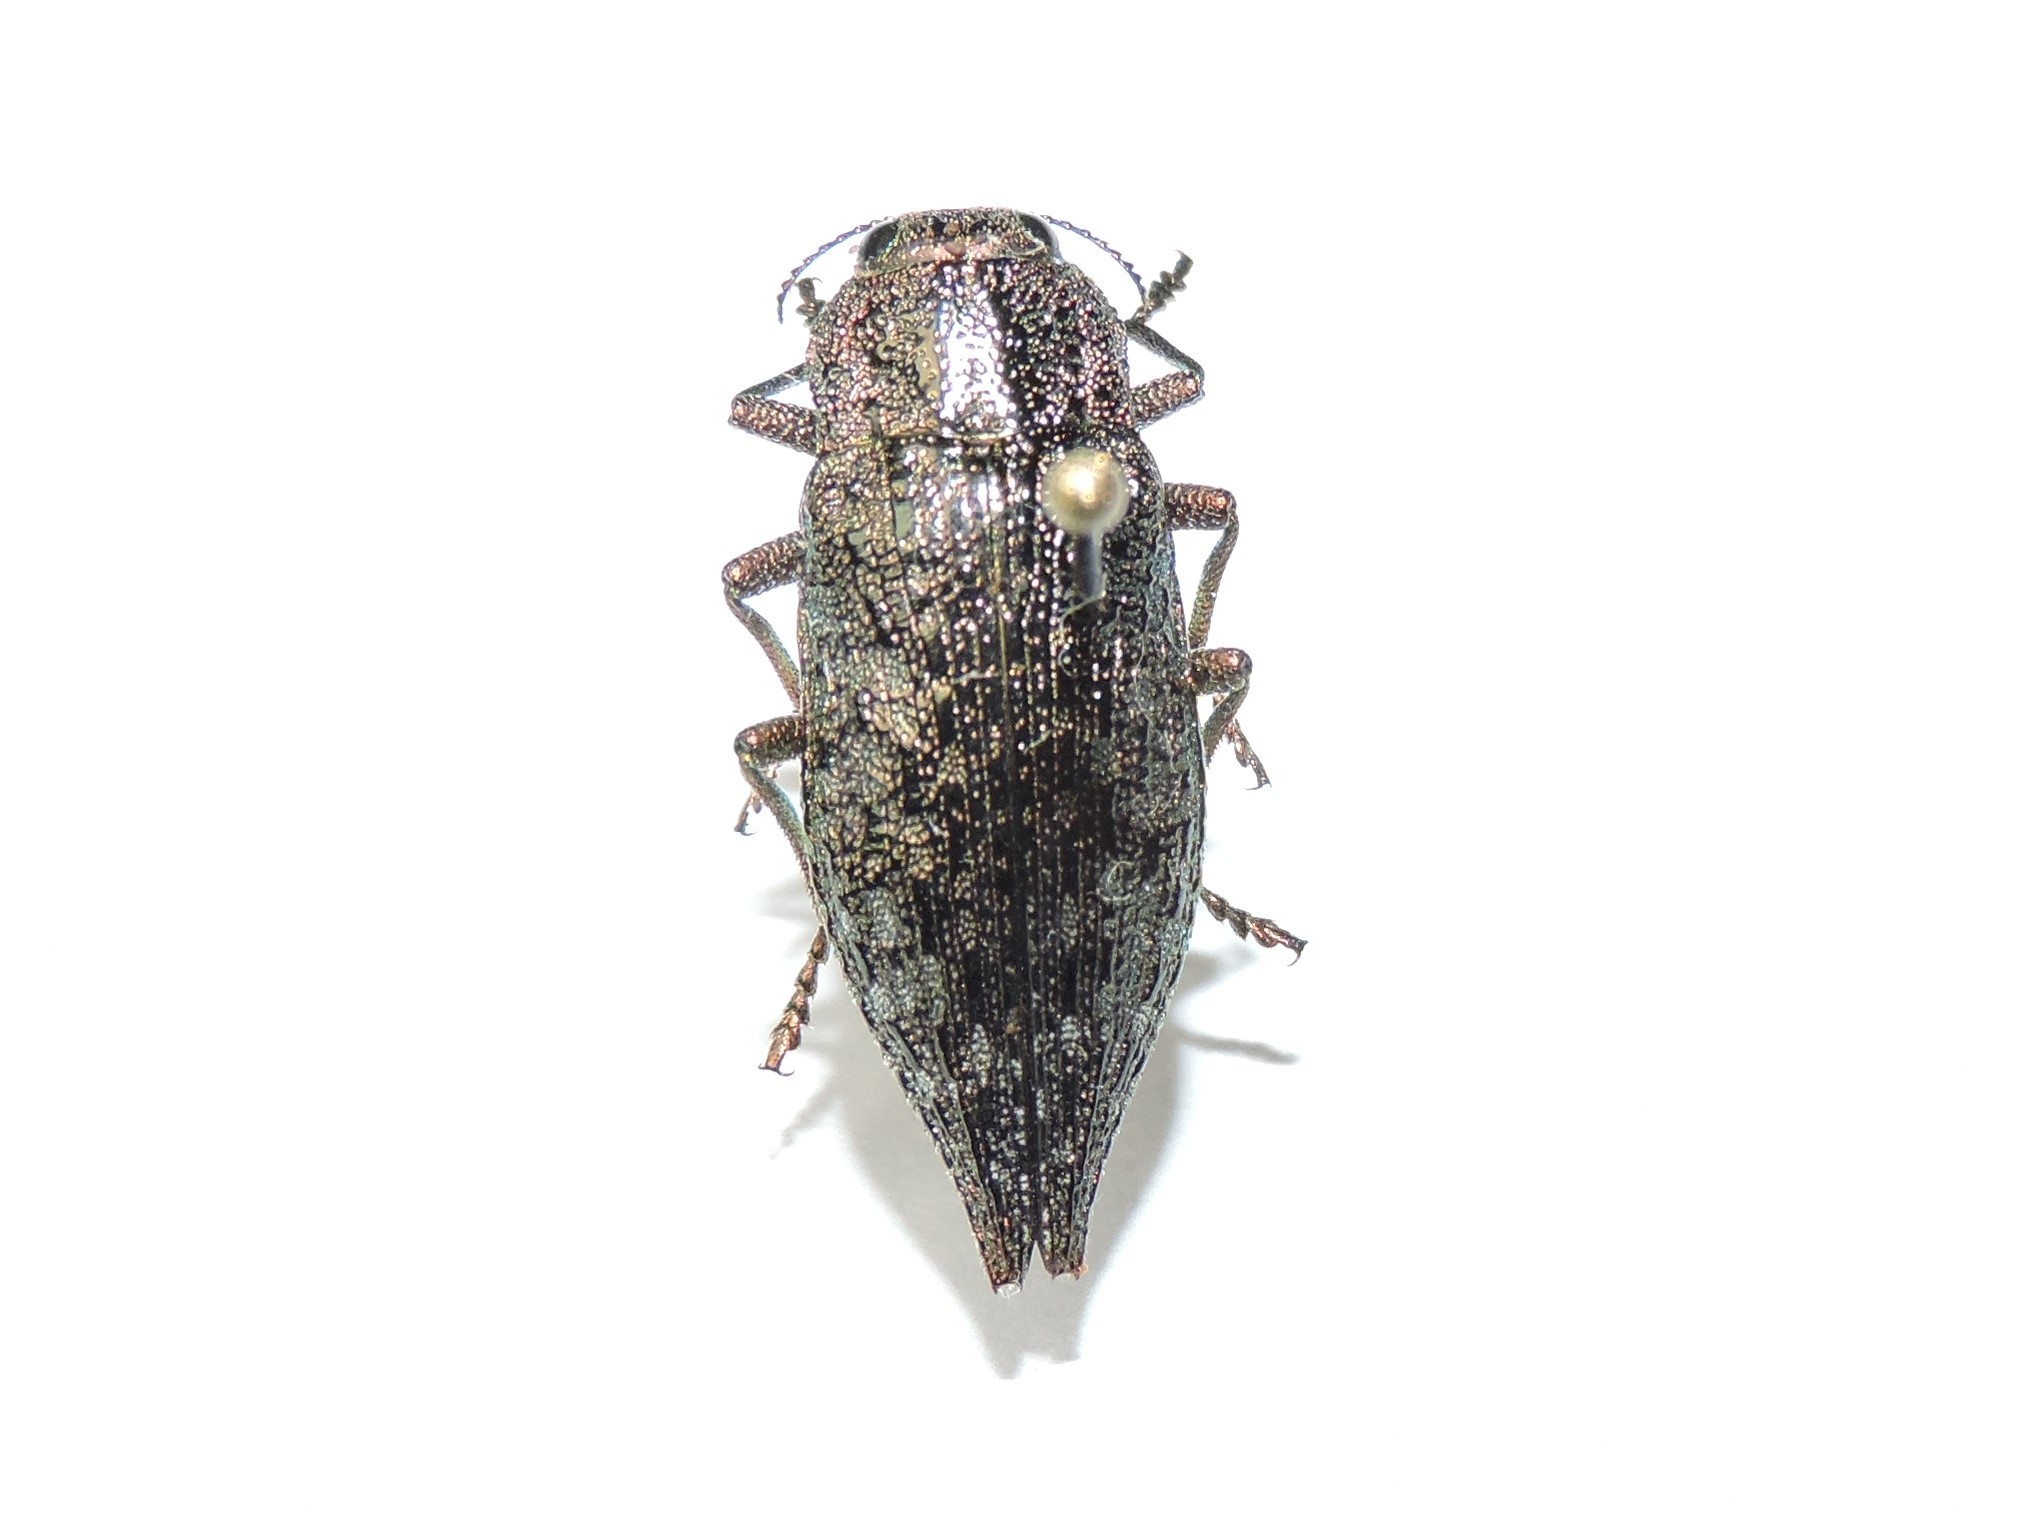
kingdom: Animalia
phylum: Arthropoda
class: Insecta
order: Coleoptera
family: Buprestidae
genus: Dicerca
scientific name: Dicerca alni
